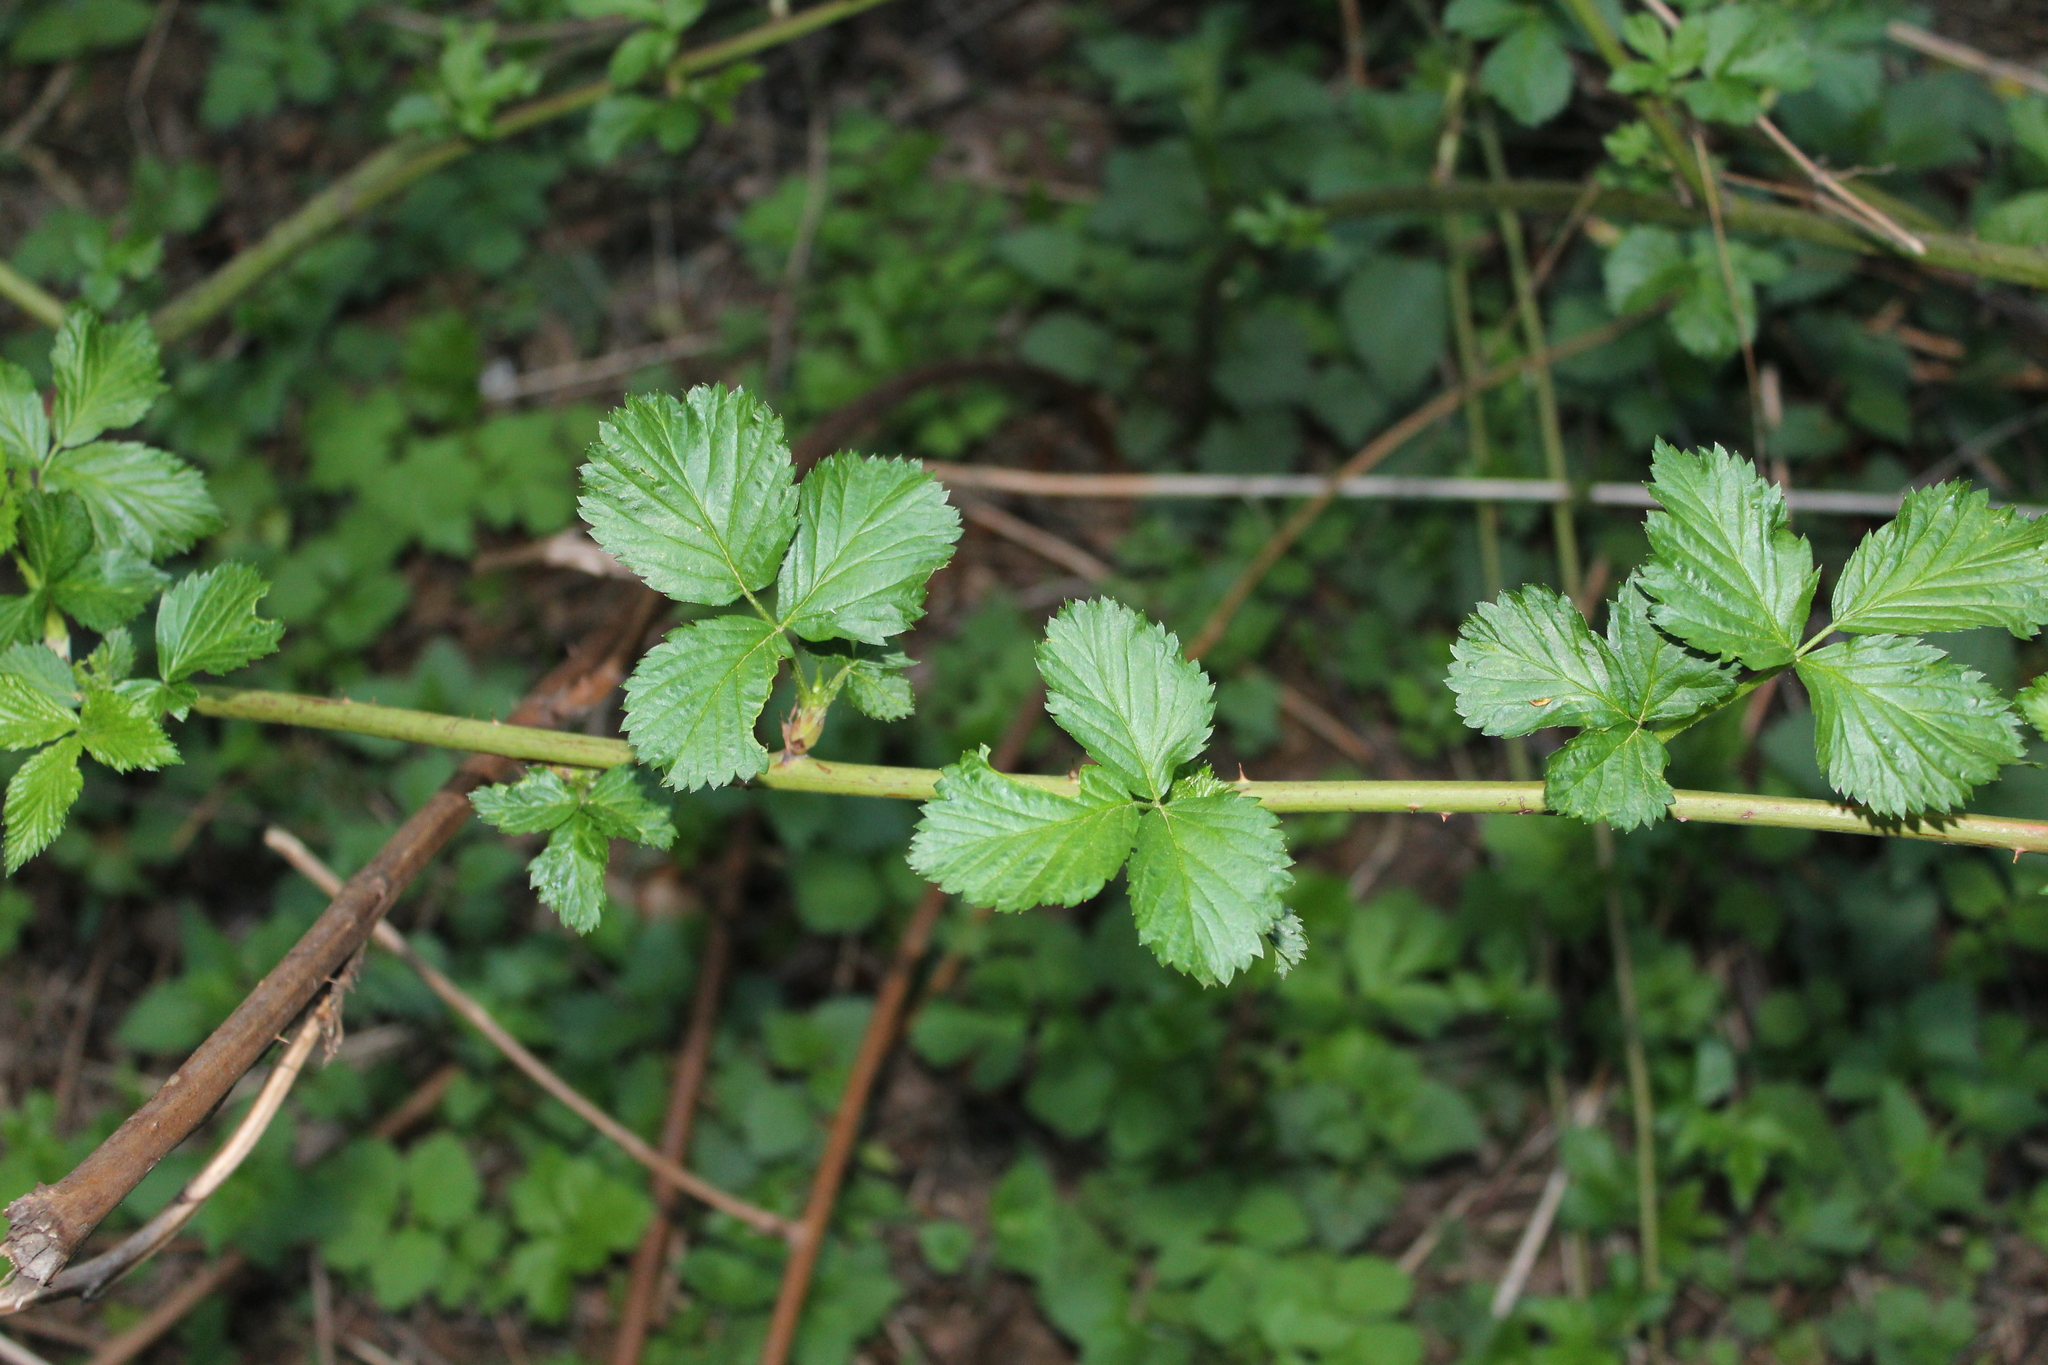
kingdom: Plantae
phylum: Tracheophyta
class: Magnoliopsida
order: Rosales
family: Rosaceae
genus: Rubus
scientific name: Rubus polonicus
